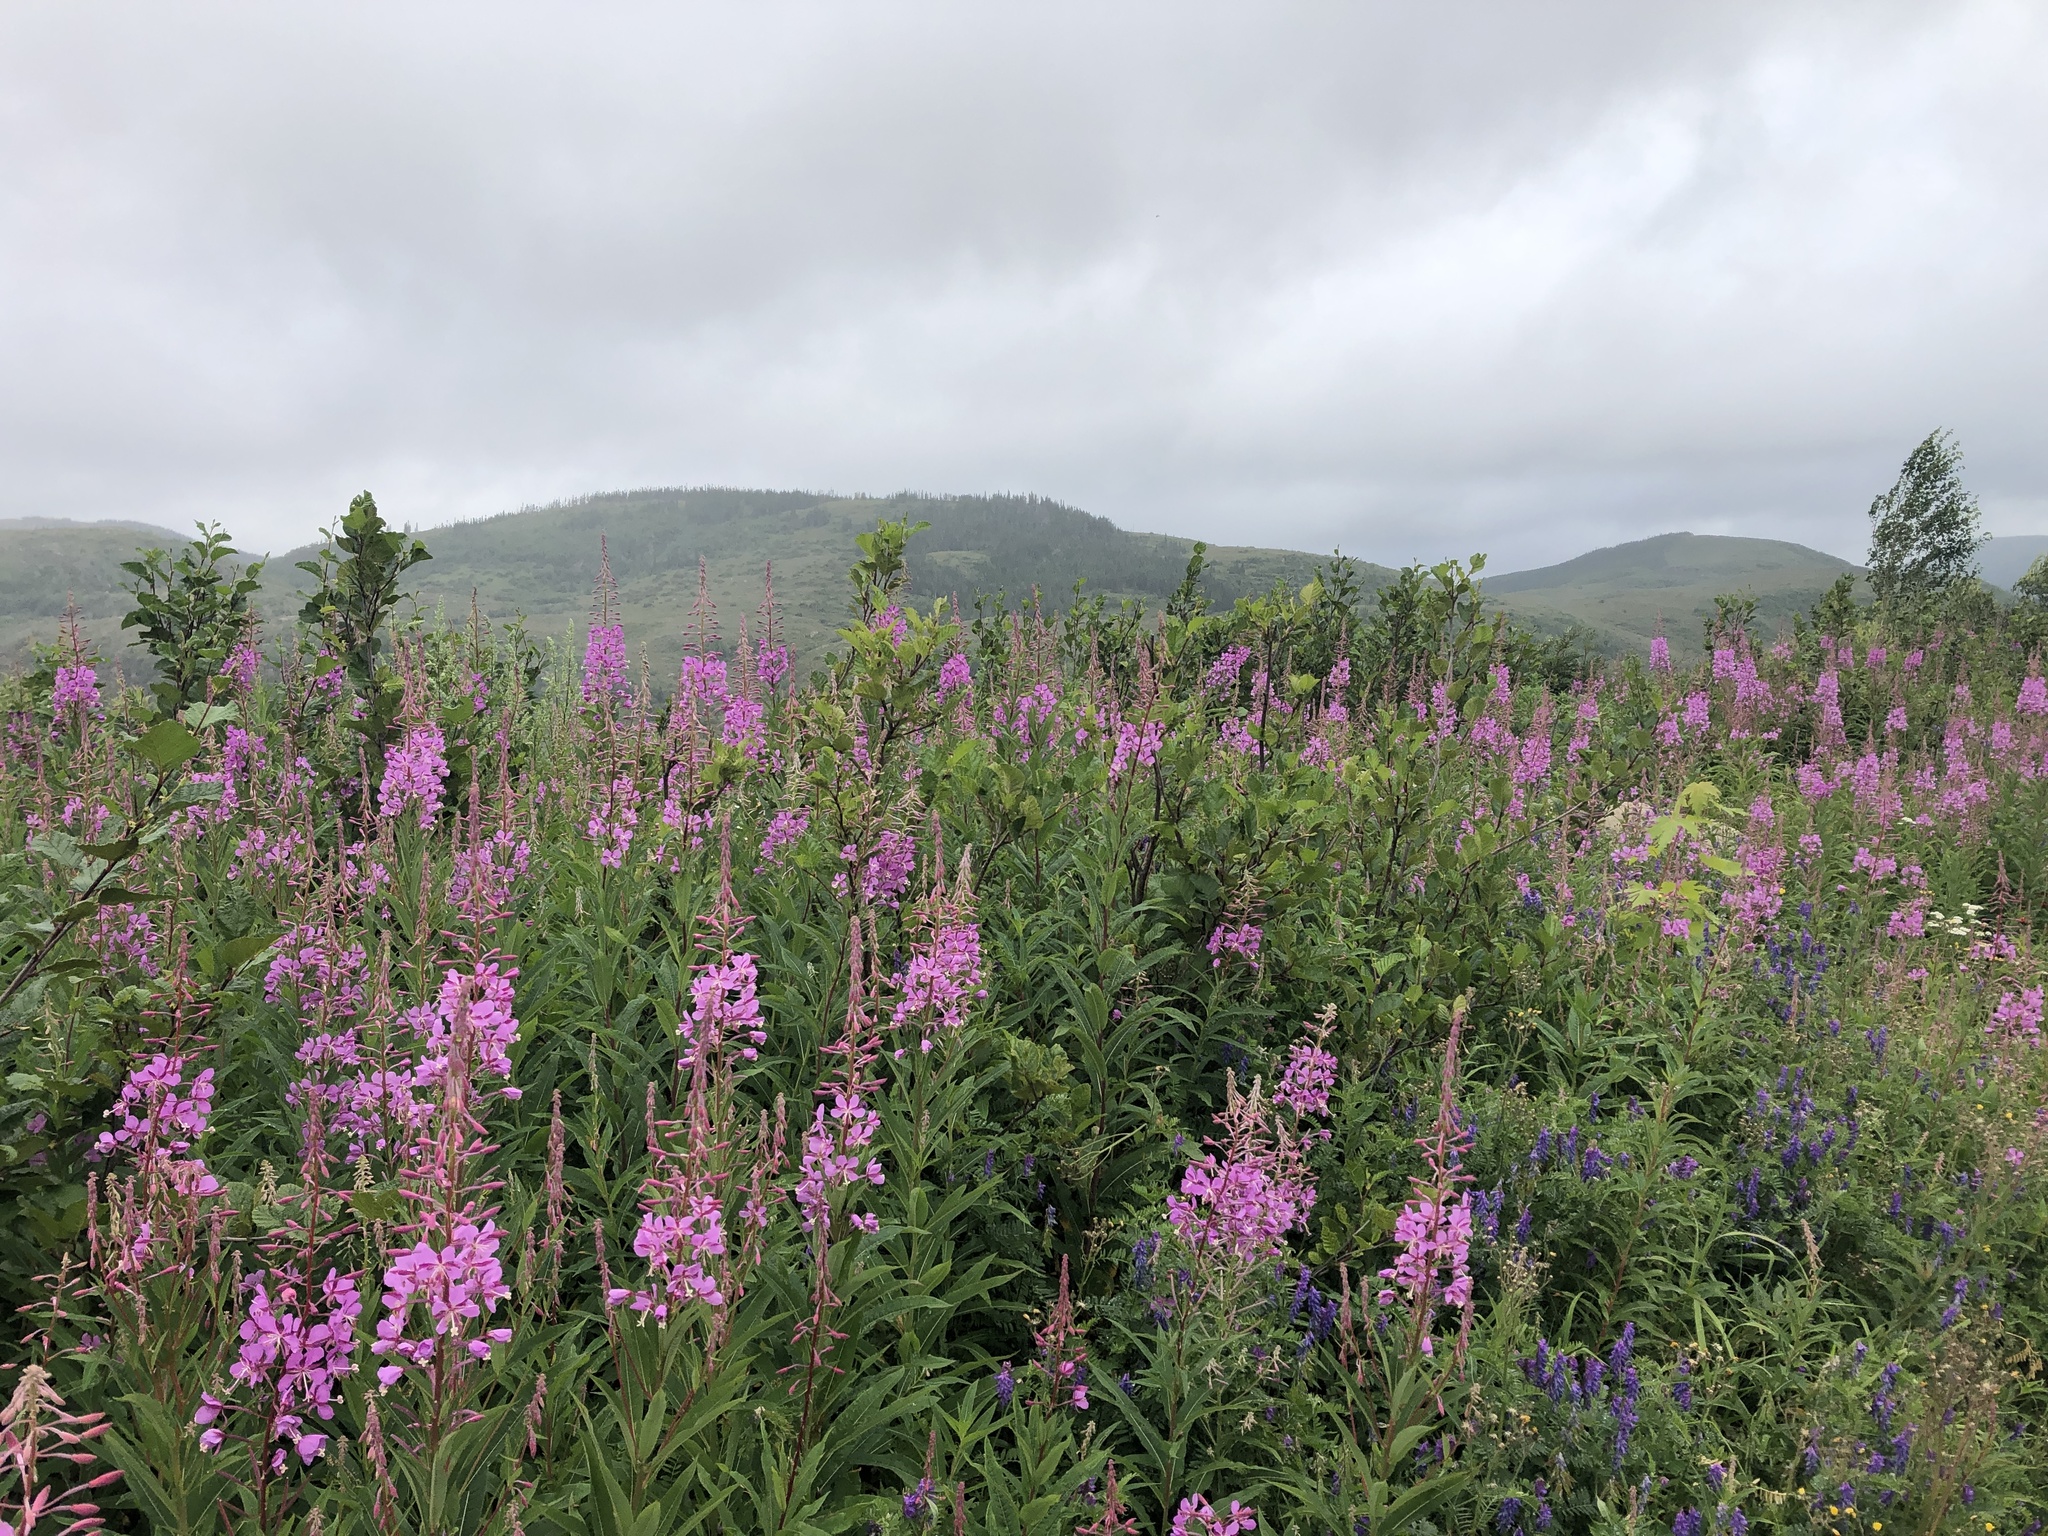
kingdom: Plantae
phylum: Tracheophyta
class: Magnoliopsida
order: Myrtales
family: Onagraceae
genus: Chamaenerion
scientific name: Chamaenerion angustifolium
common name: Fireweed
